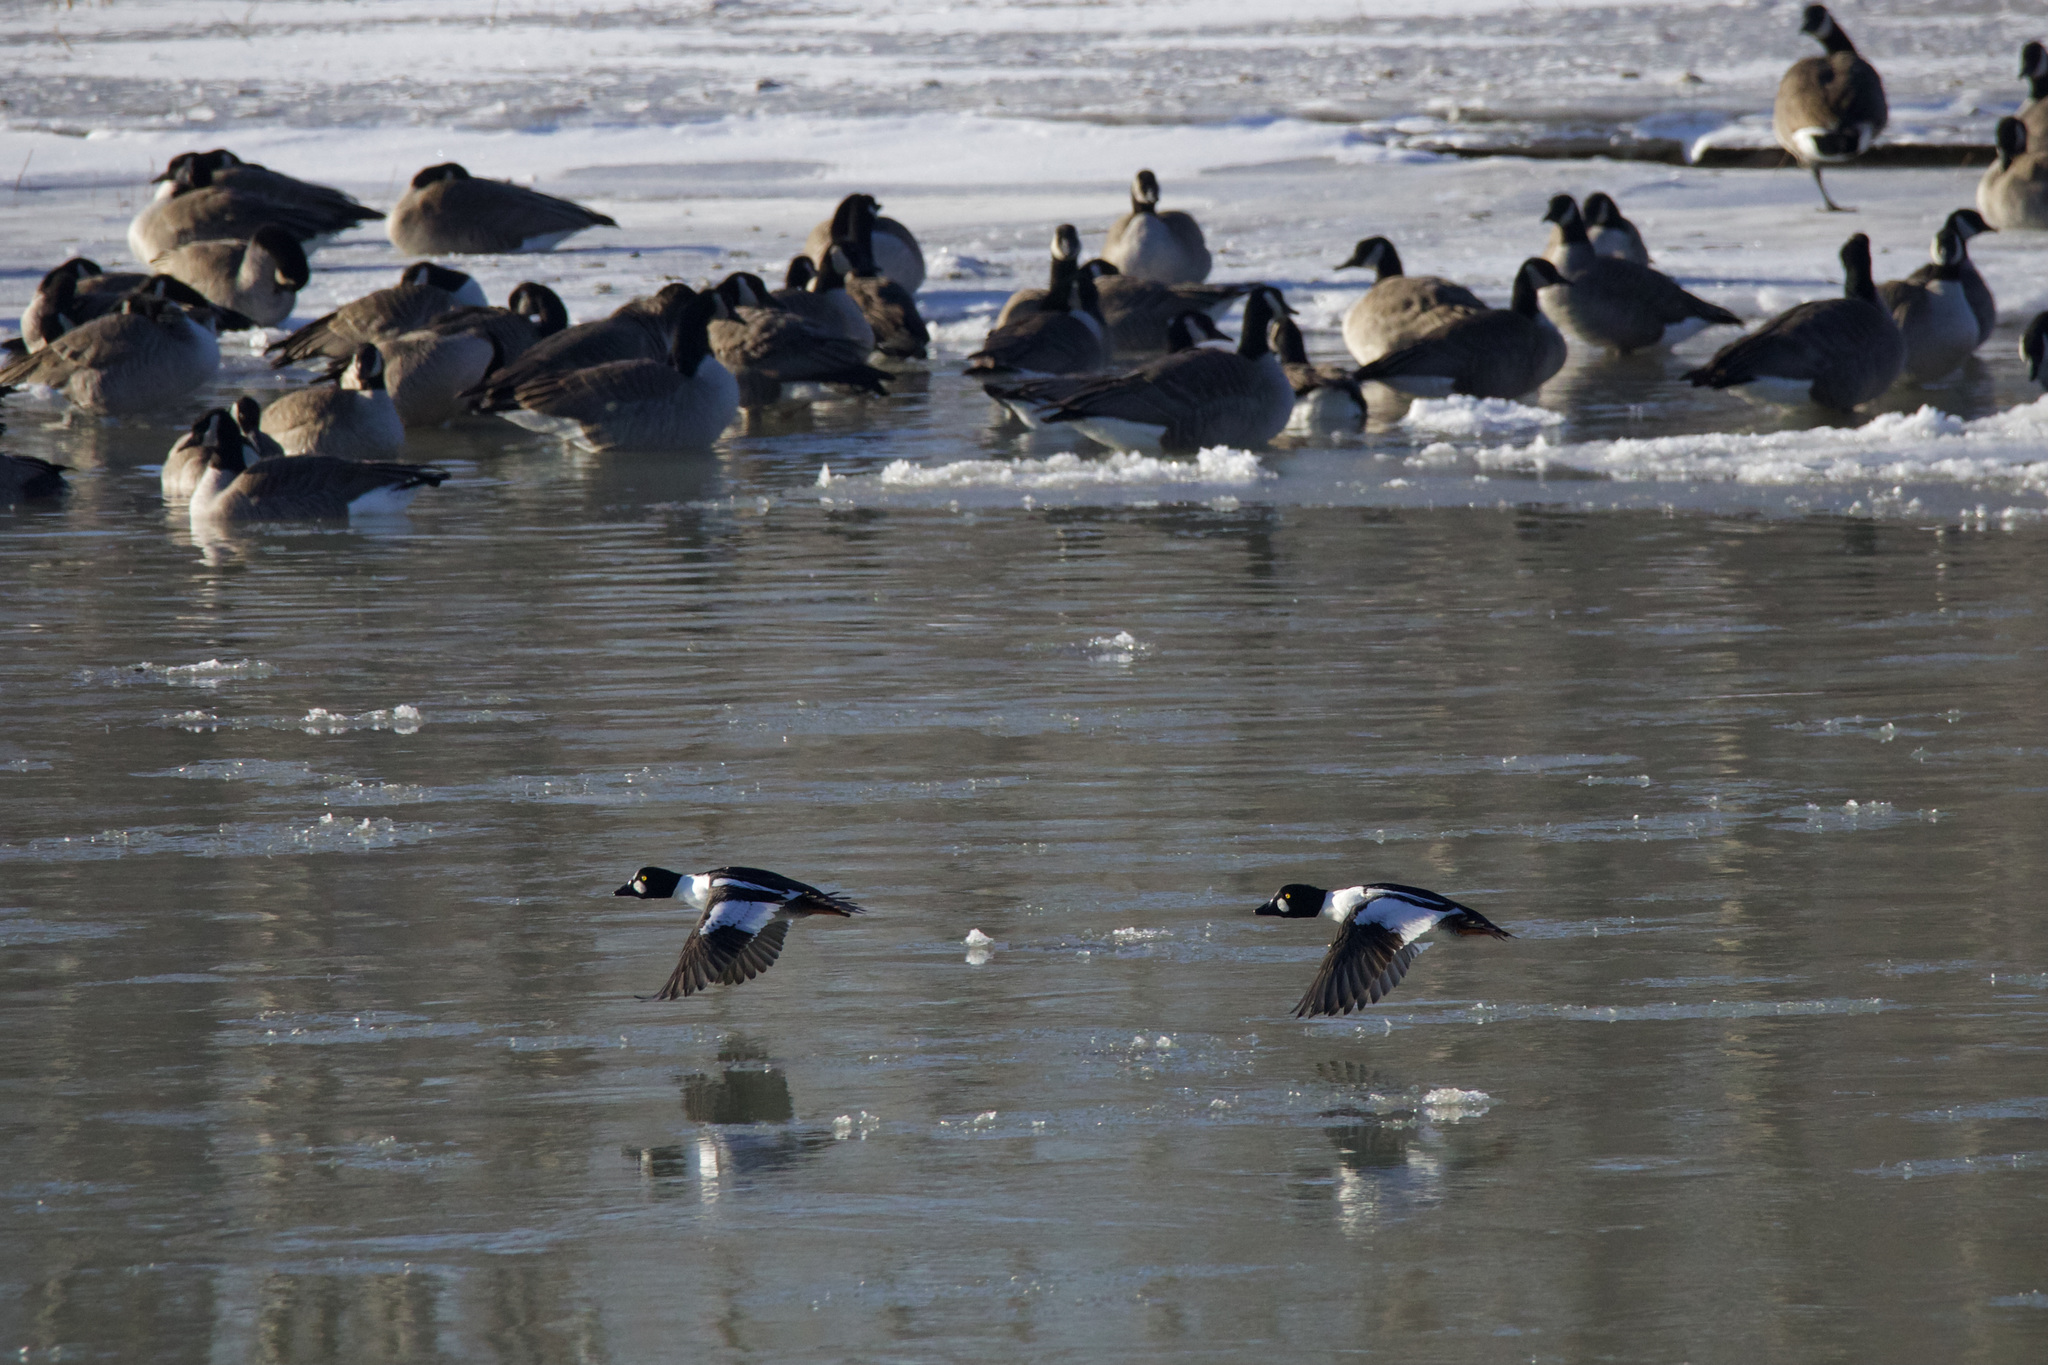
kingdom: Animalia
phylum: Chordata
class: Aves
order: Anseriformes
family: Anatidae
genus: Bucephala
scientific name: Bucephala clangula
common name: Common goldeneye
